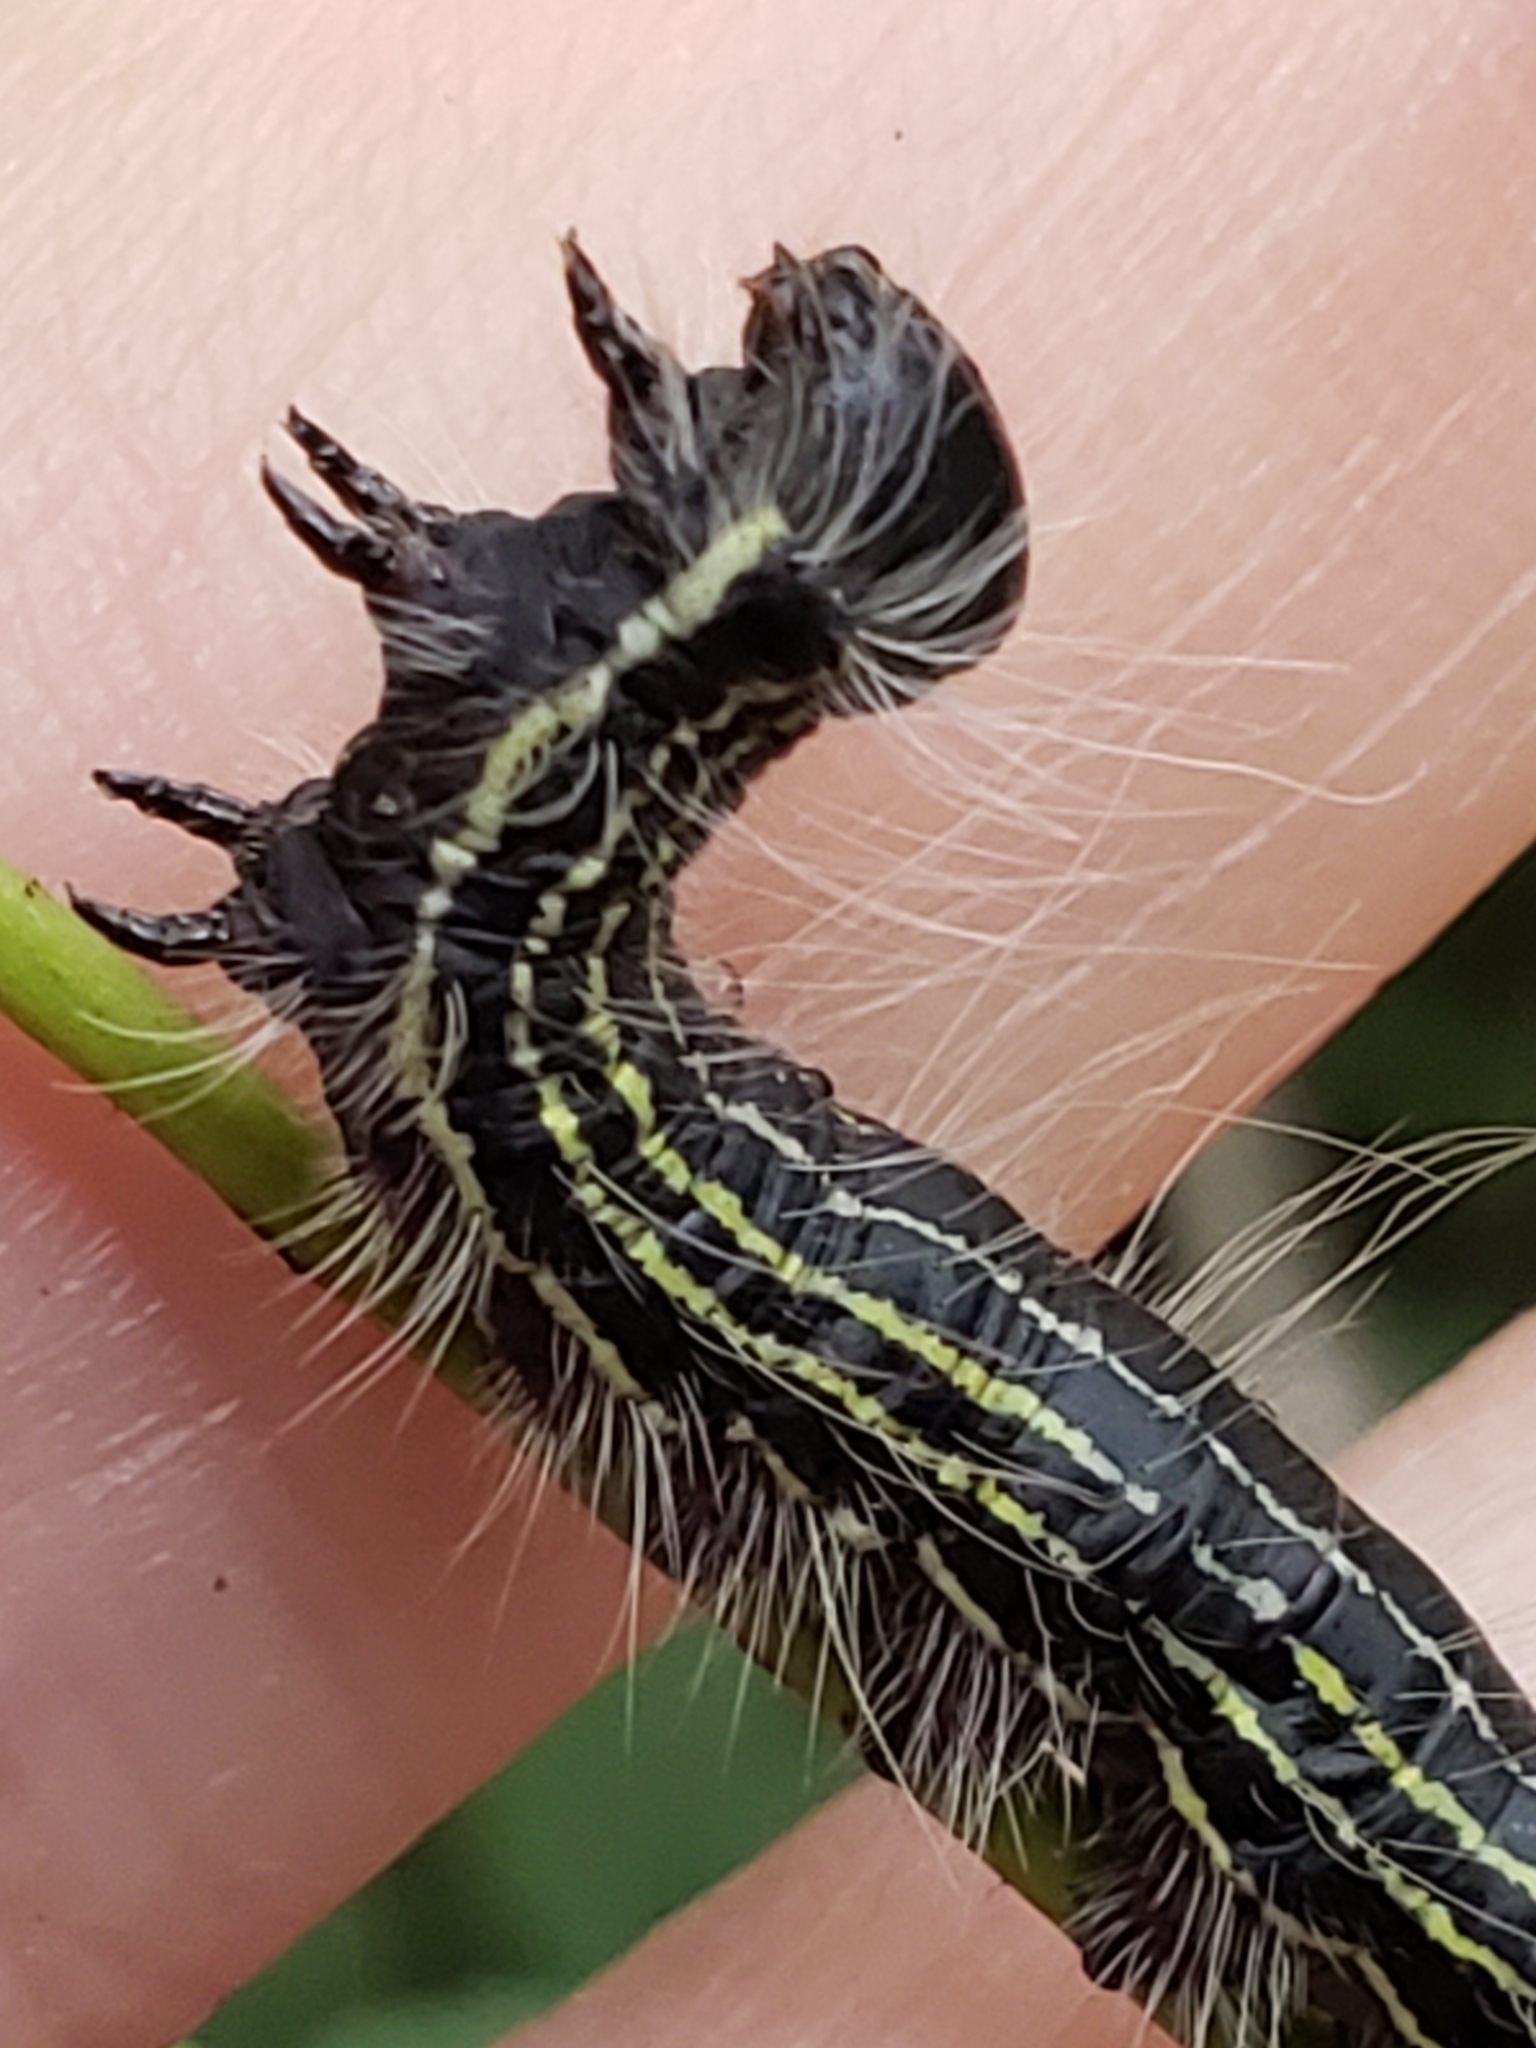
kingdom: Animalia
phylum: Arthropoda
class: Insecta
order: Lepidoptera
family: Notodontidae
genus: Datana
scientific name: Datana angusii
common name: Angus's datana
